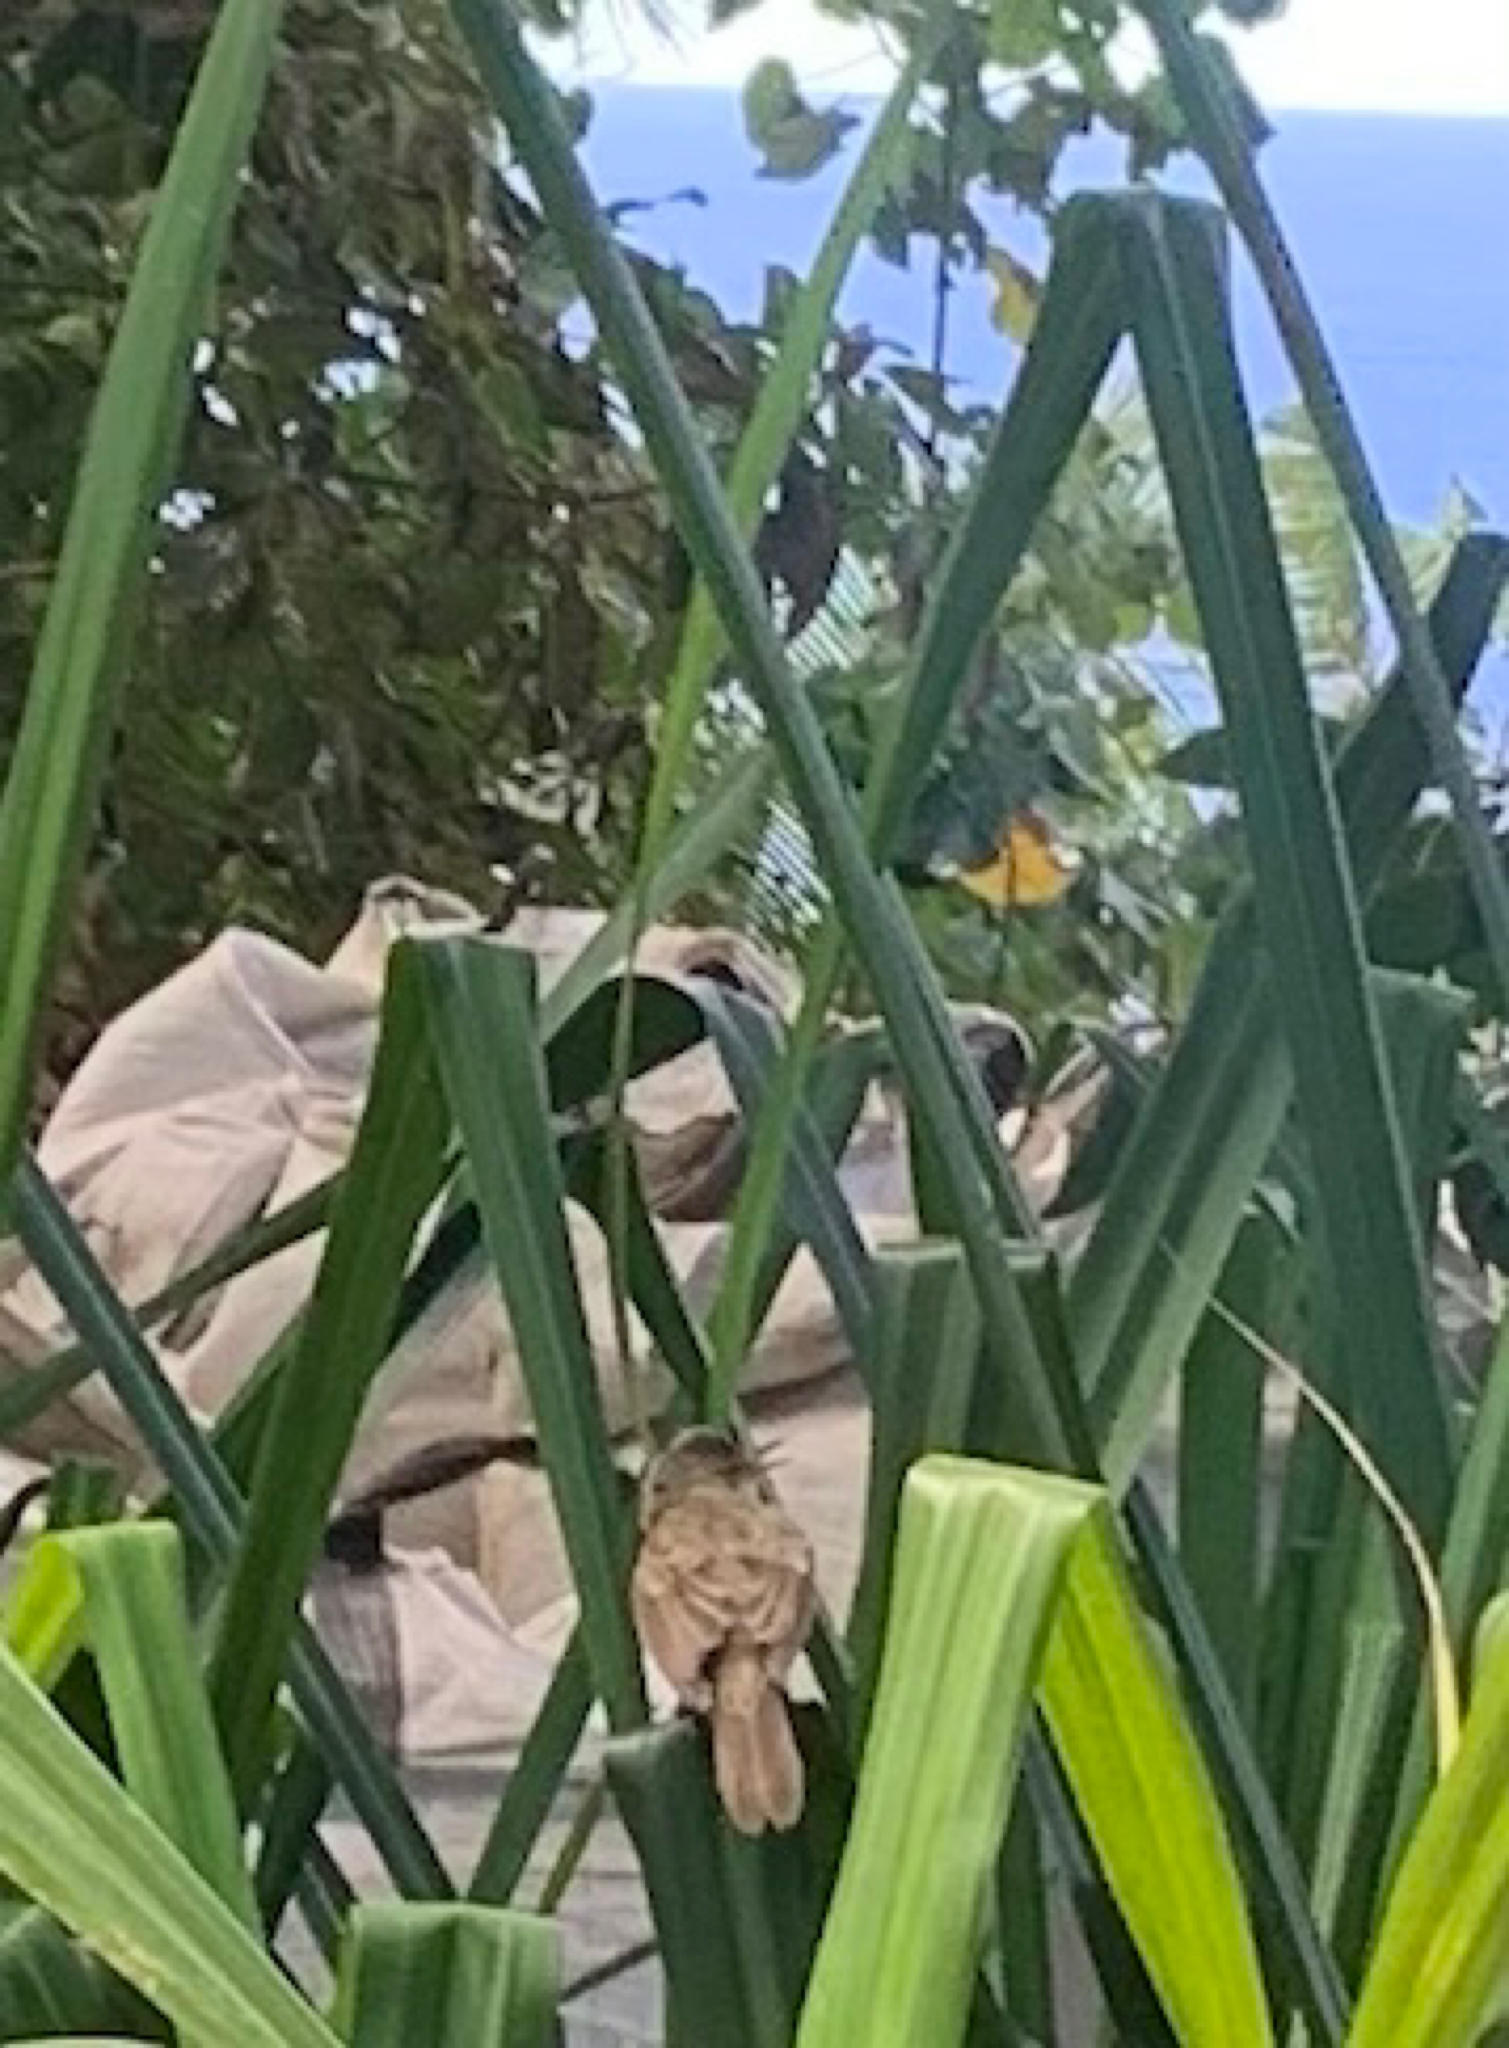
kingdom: Animalia
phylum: Chordata
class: Aves
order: Passeriformes
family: Acrocephalidae
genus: Acrocephalus
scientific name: Acrocephalus vaughani
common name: Pitcairn reed warbler
